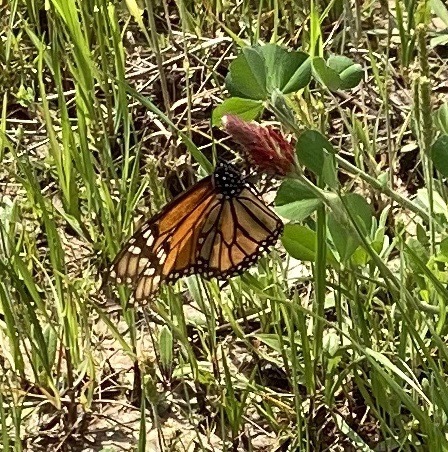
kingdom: Animalia
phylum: Arthropoda
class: Insecta
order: Lepidoptera
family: Nymphalidae
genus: Danaus
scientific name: Danaus plexippus
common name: Monarch
